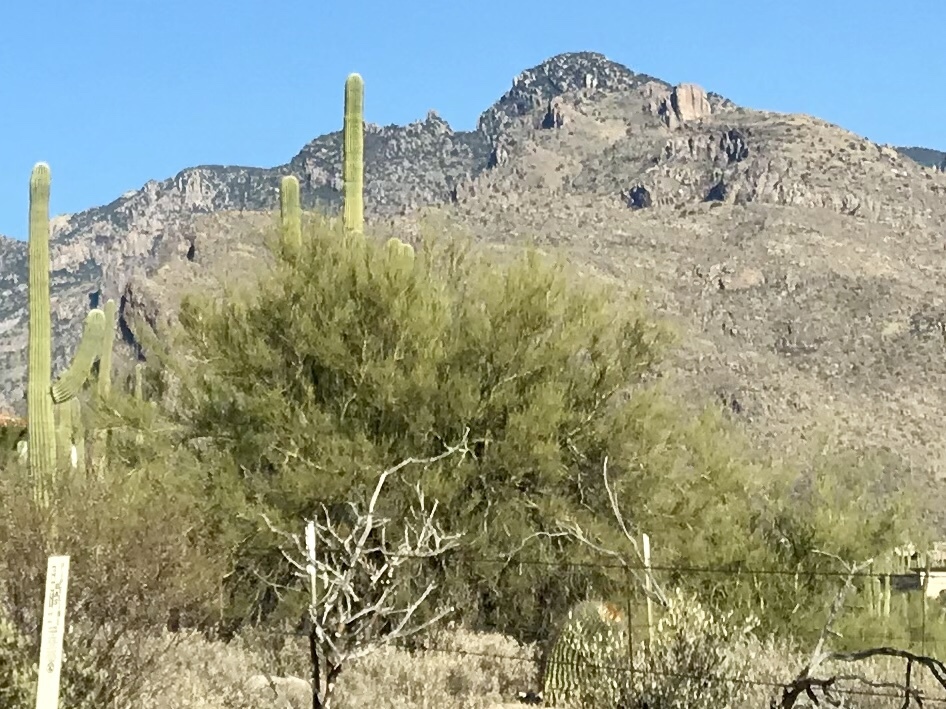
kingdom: Plantae
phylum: Tracheophyta
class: Magnoliopsida
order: Fabales
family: Fabaceae
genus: Parkinsonia
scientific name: Parkinsonia microphylla
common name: Yellow paloverde
